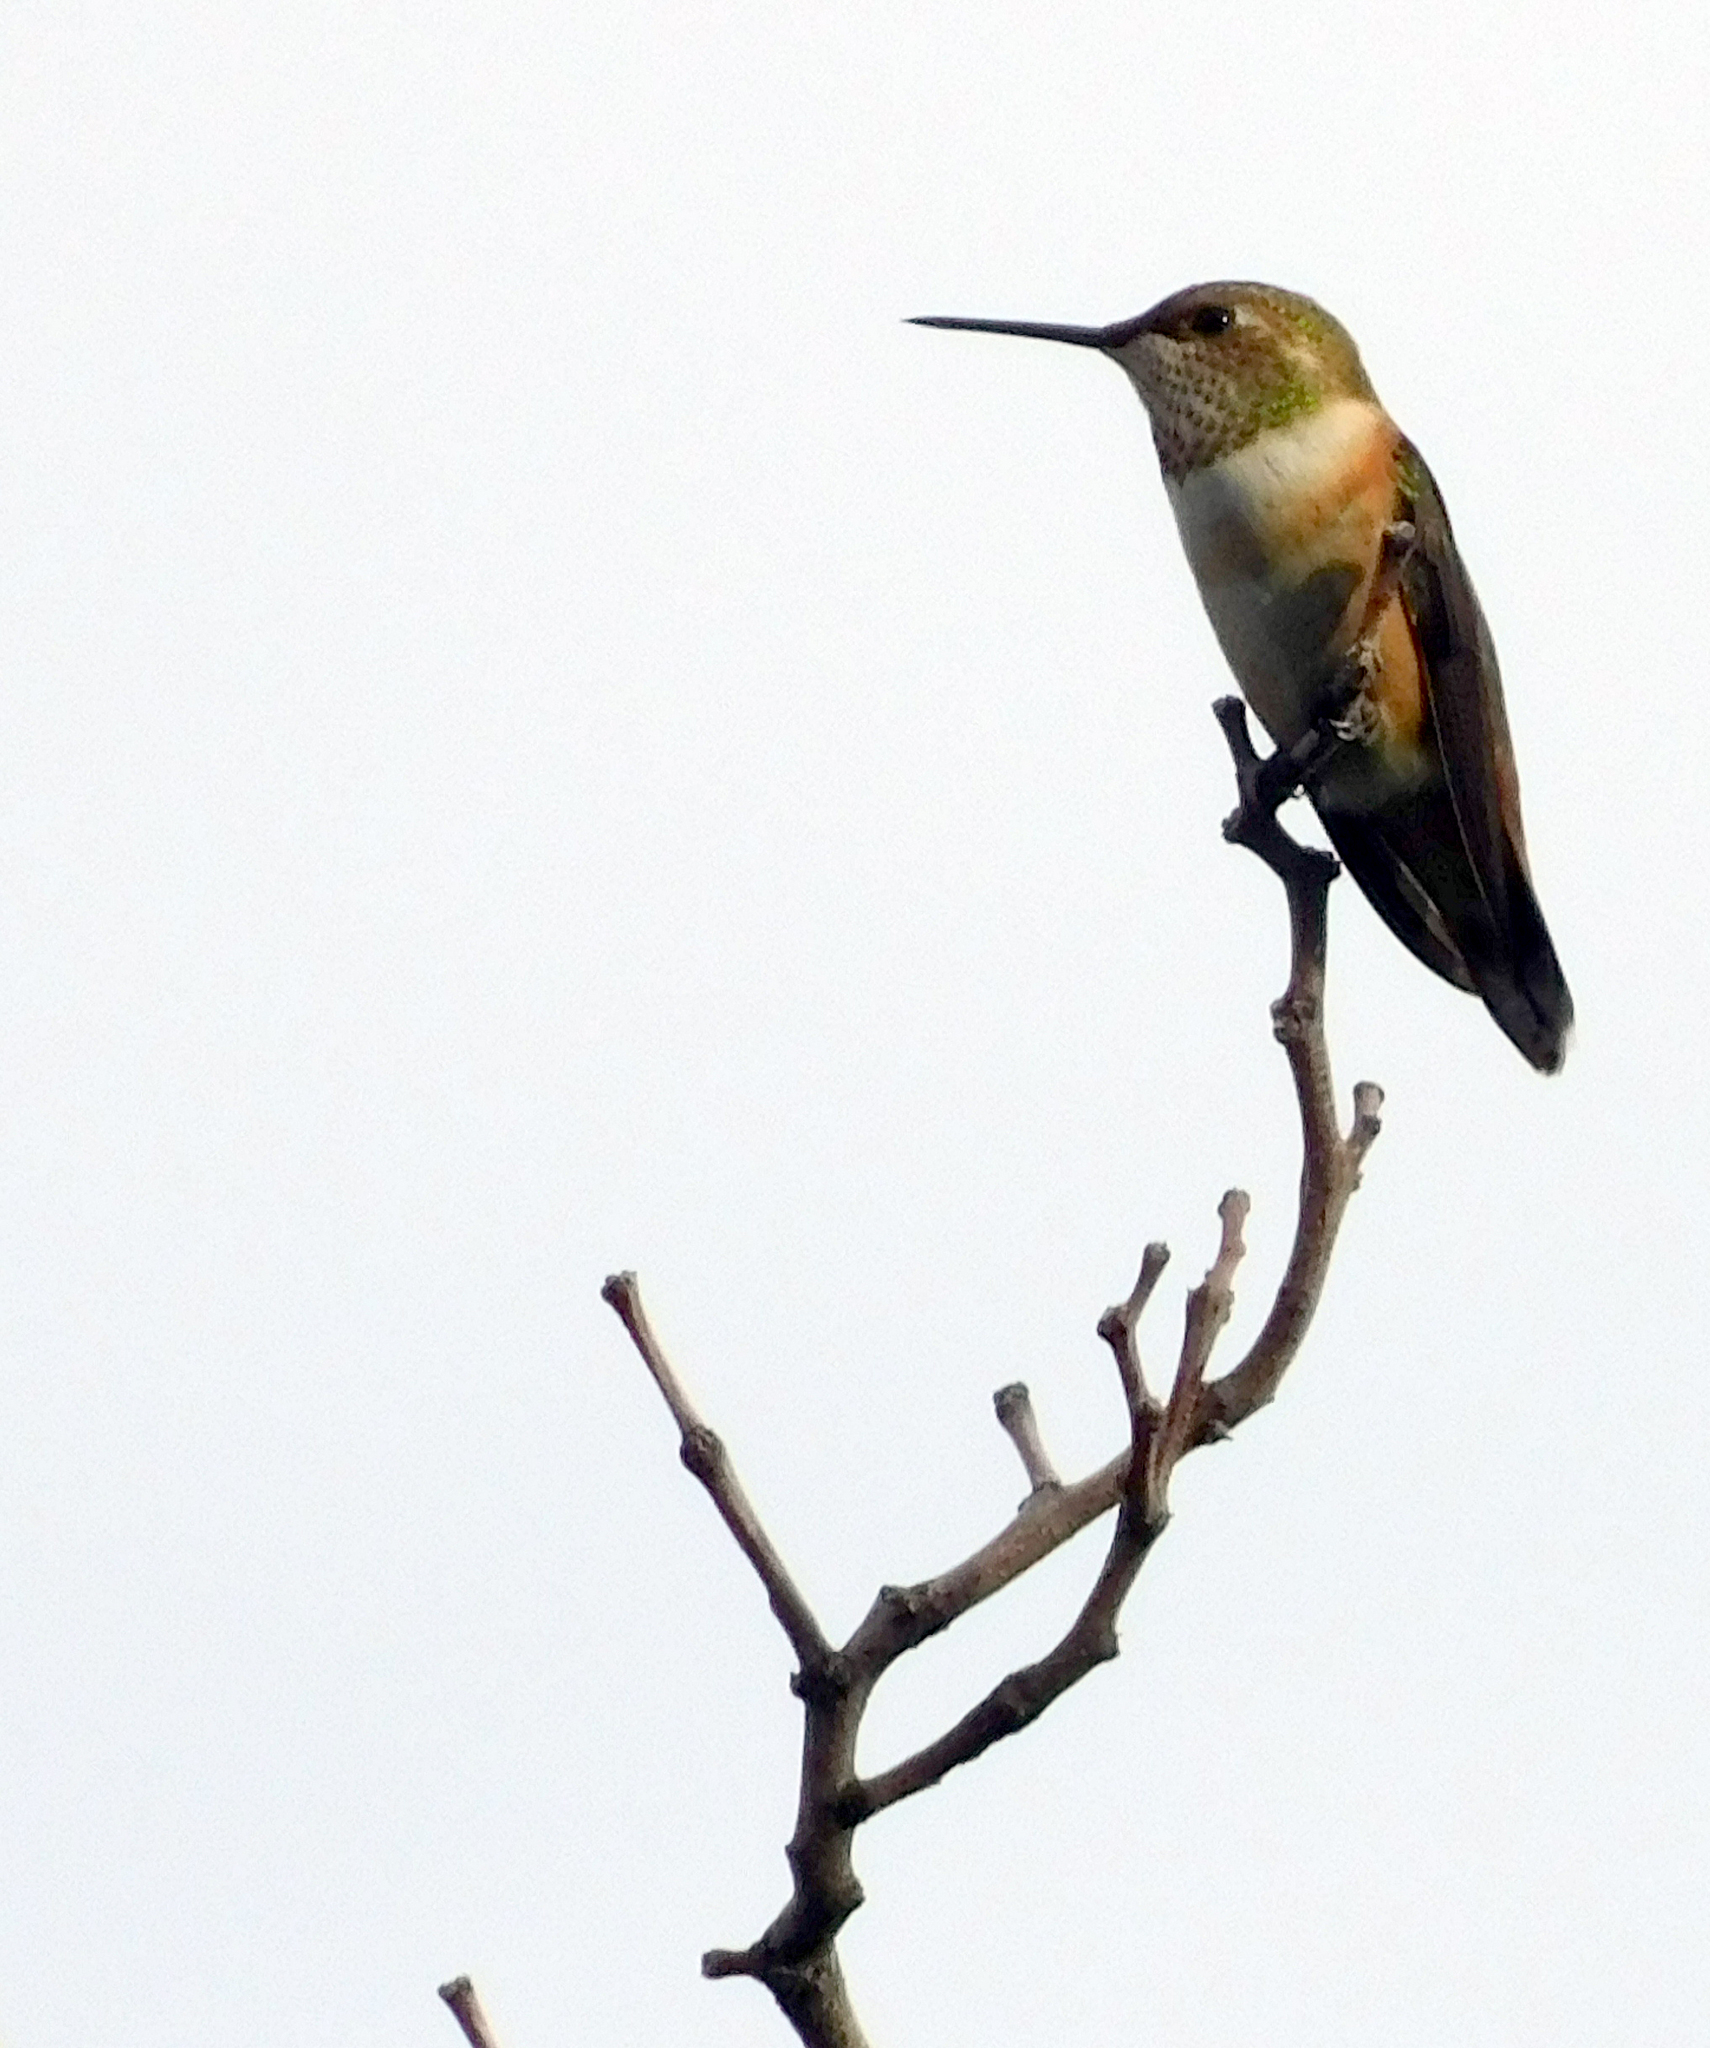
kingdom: Animalia
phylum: Chordata
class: Aves
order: Apodiformes
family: Trochilidae
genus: Selasphorus
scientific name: Selasphorus rufus
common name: Rufous hummingbird
